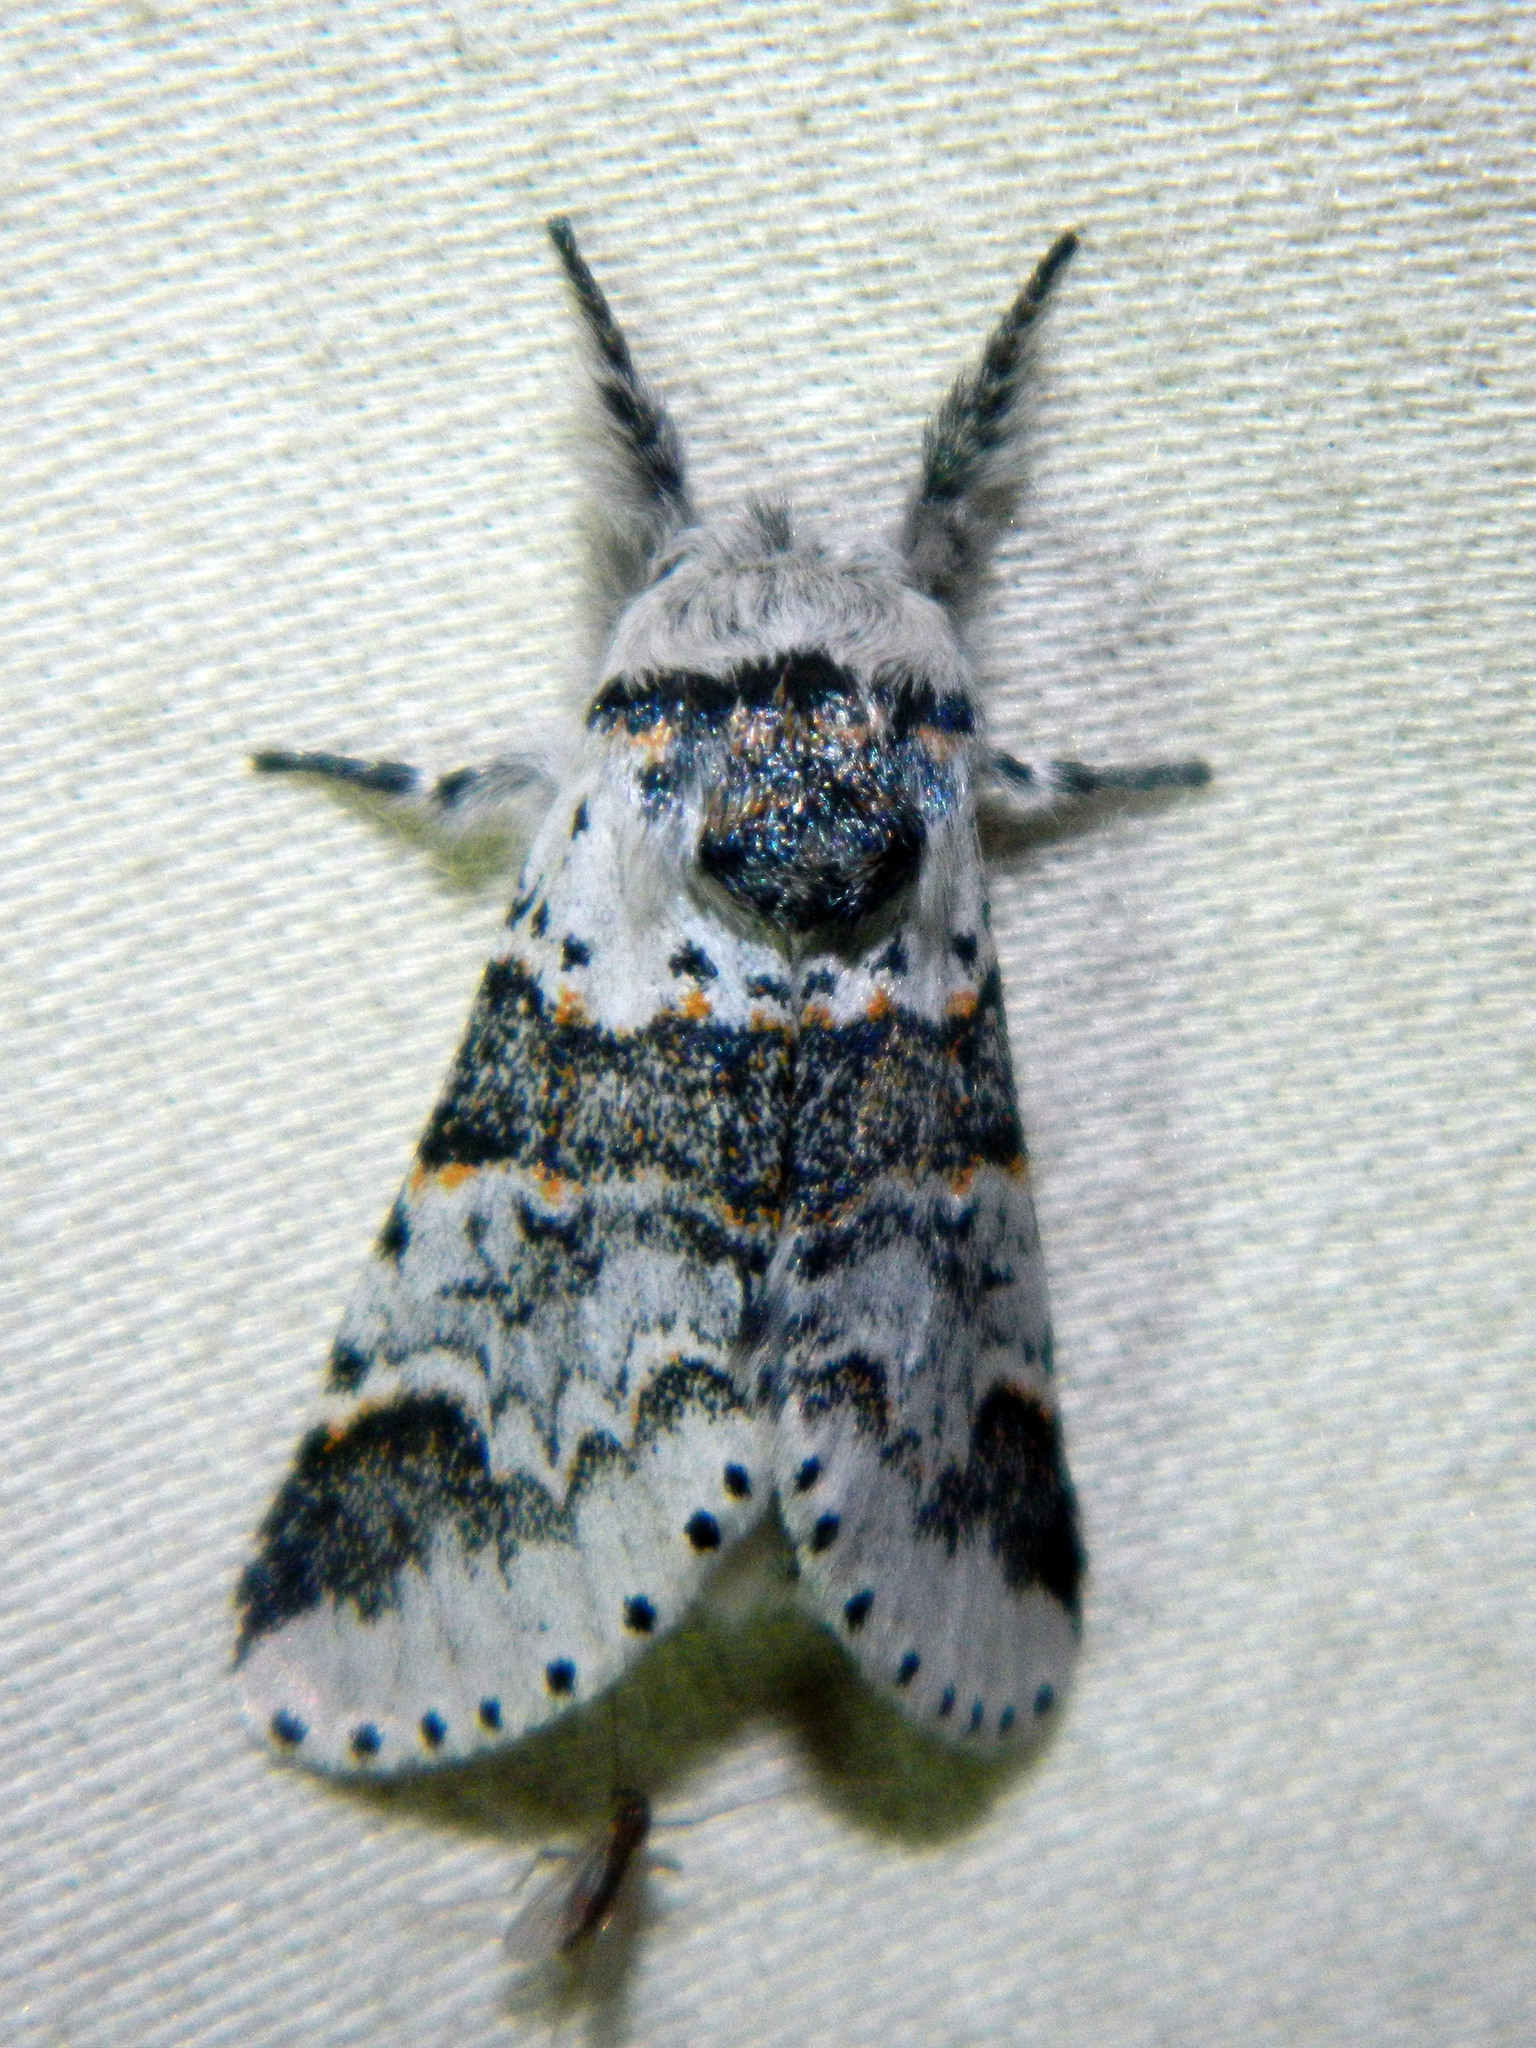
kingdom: Animalia
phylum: Arthropoda
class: Insecta
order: Lepidoptera
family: Notodontidae
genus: Furcula
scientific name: Furcula occidentalis
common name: Western furcula moth
